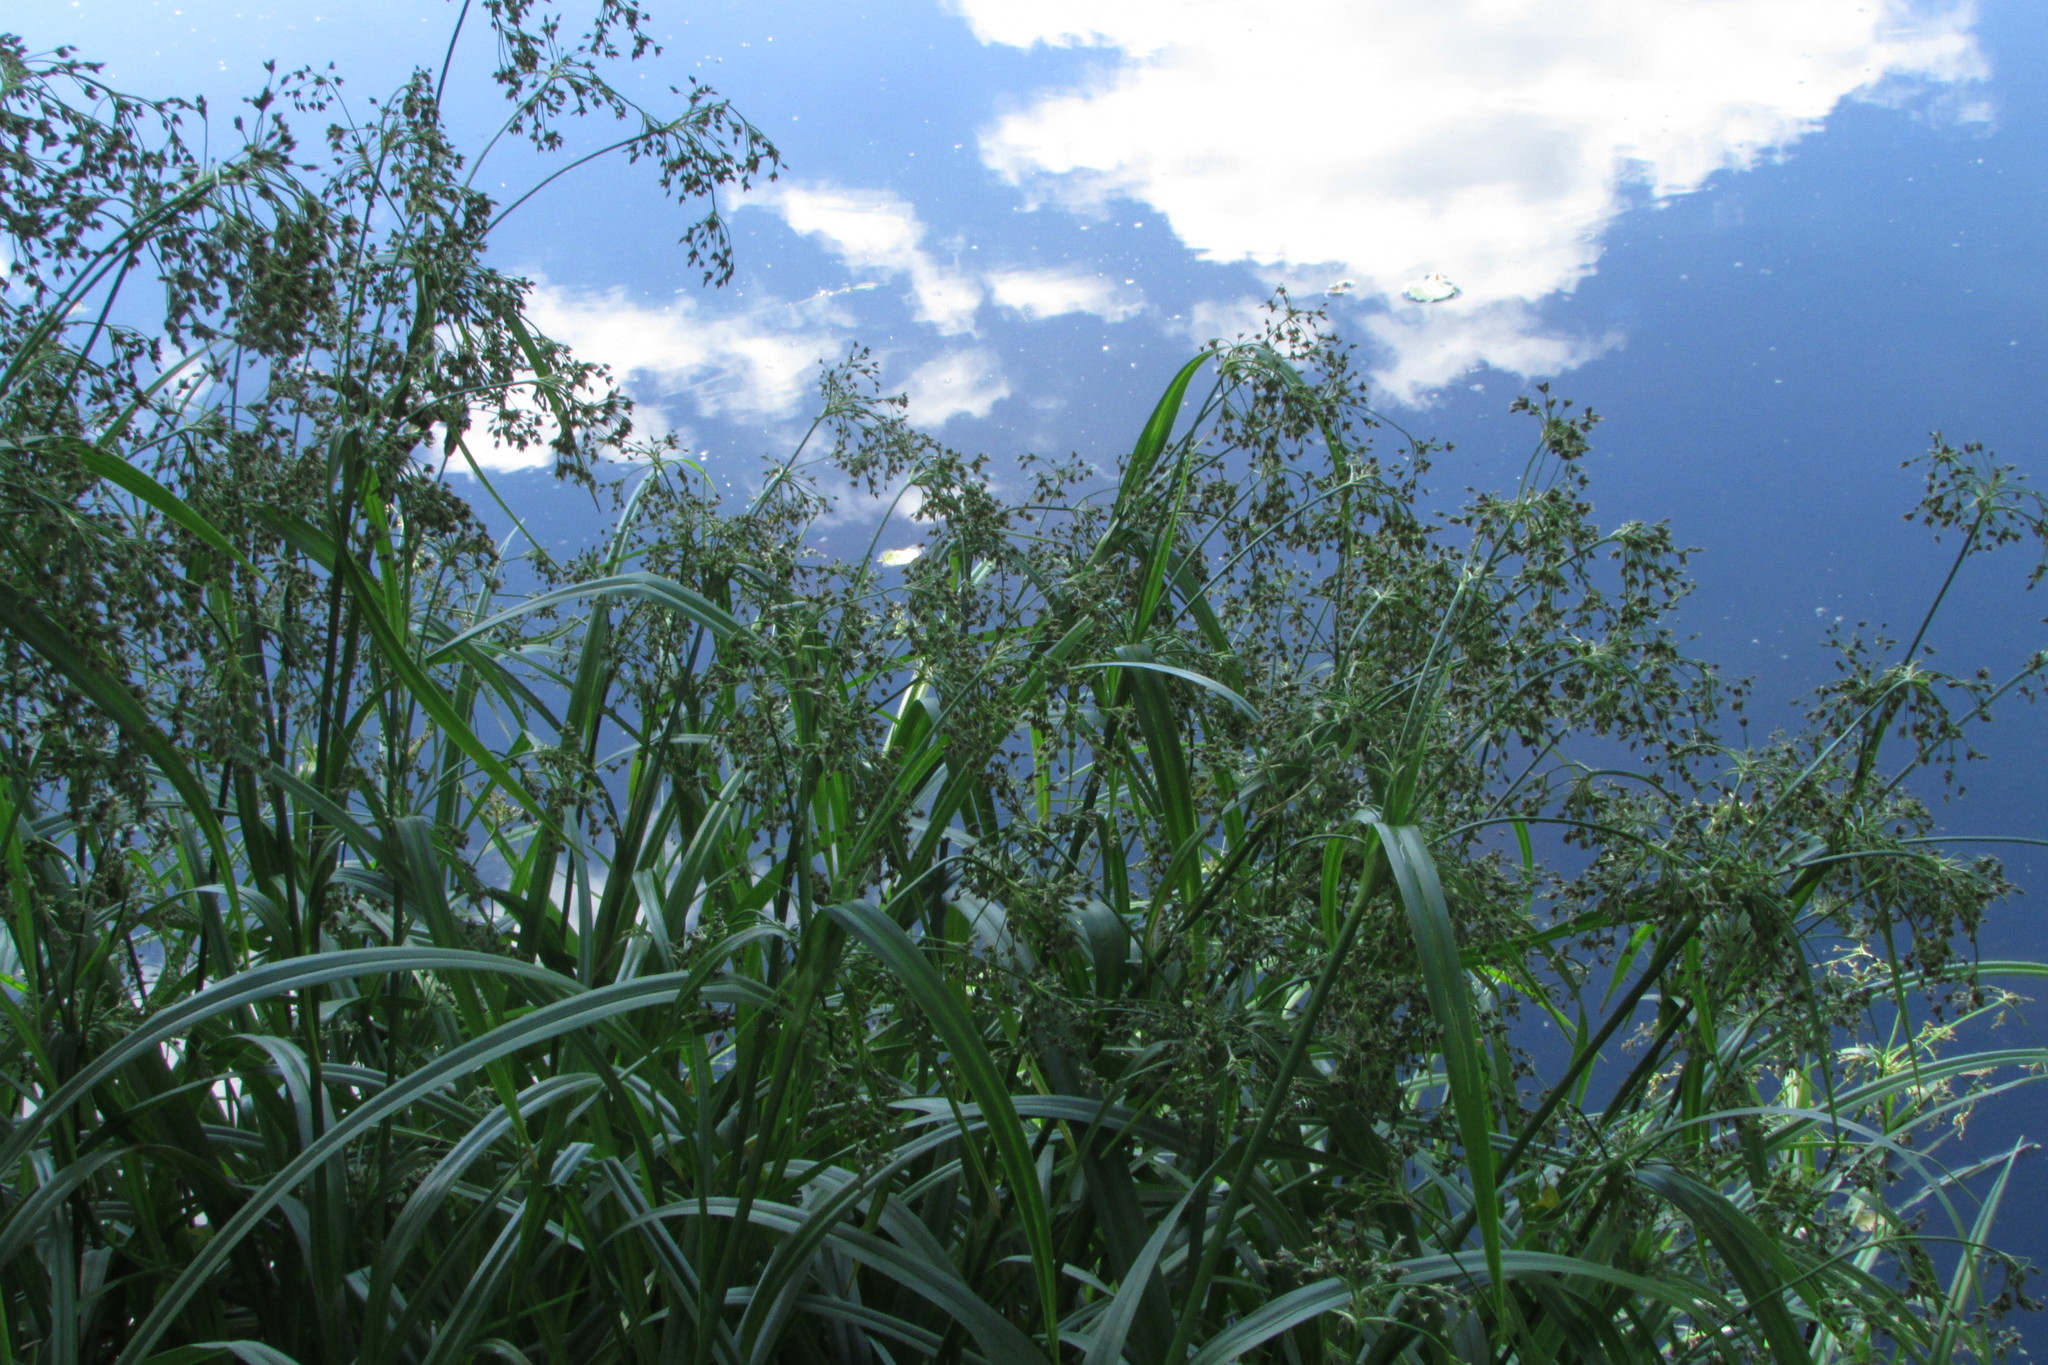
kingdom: Plantae
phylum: Tracheophyta
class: Liliopsida
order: Poales
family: Cyperaceae
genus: Scirpus
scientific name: Scirpus sylvaticus
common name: Wood club-rush
